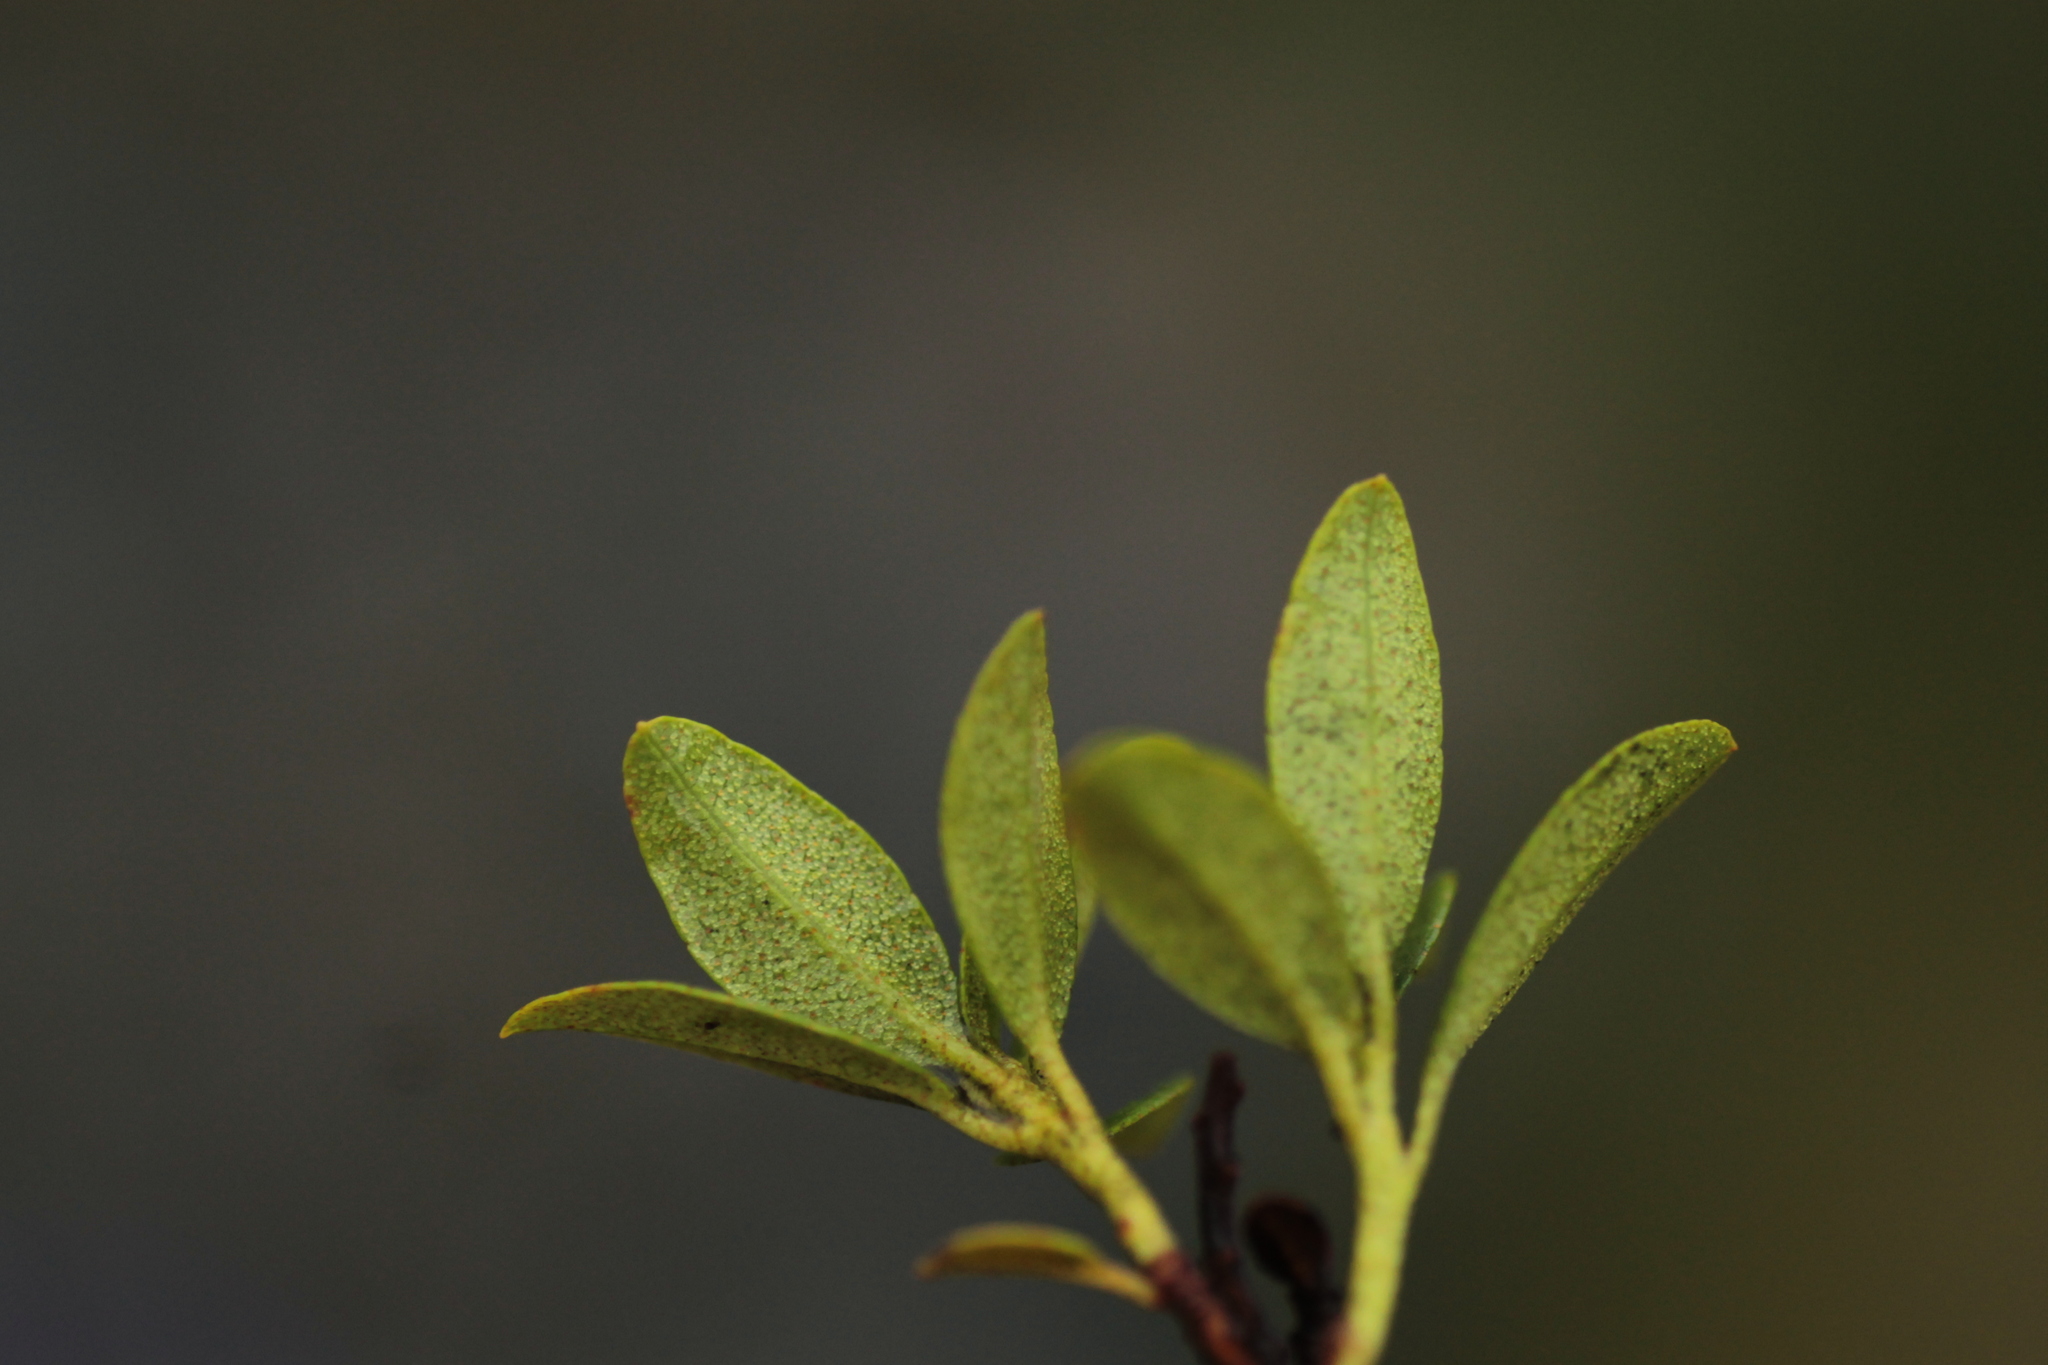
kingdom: Plantae
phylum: Tracheophyta
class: Magnoliopsida
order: Ericales
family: Ericaceae
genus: Rhododendron
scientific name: Rhododendron ferrugineum
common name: Alpenrose
